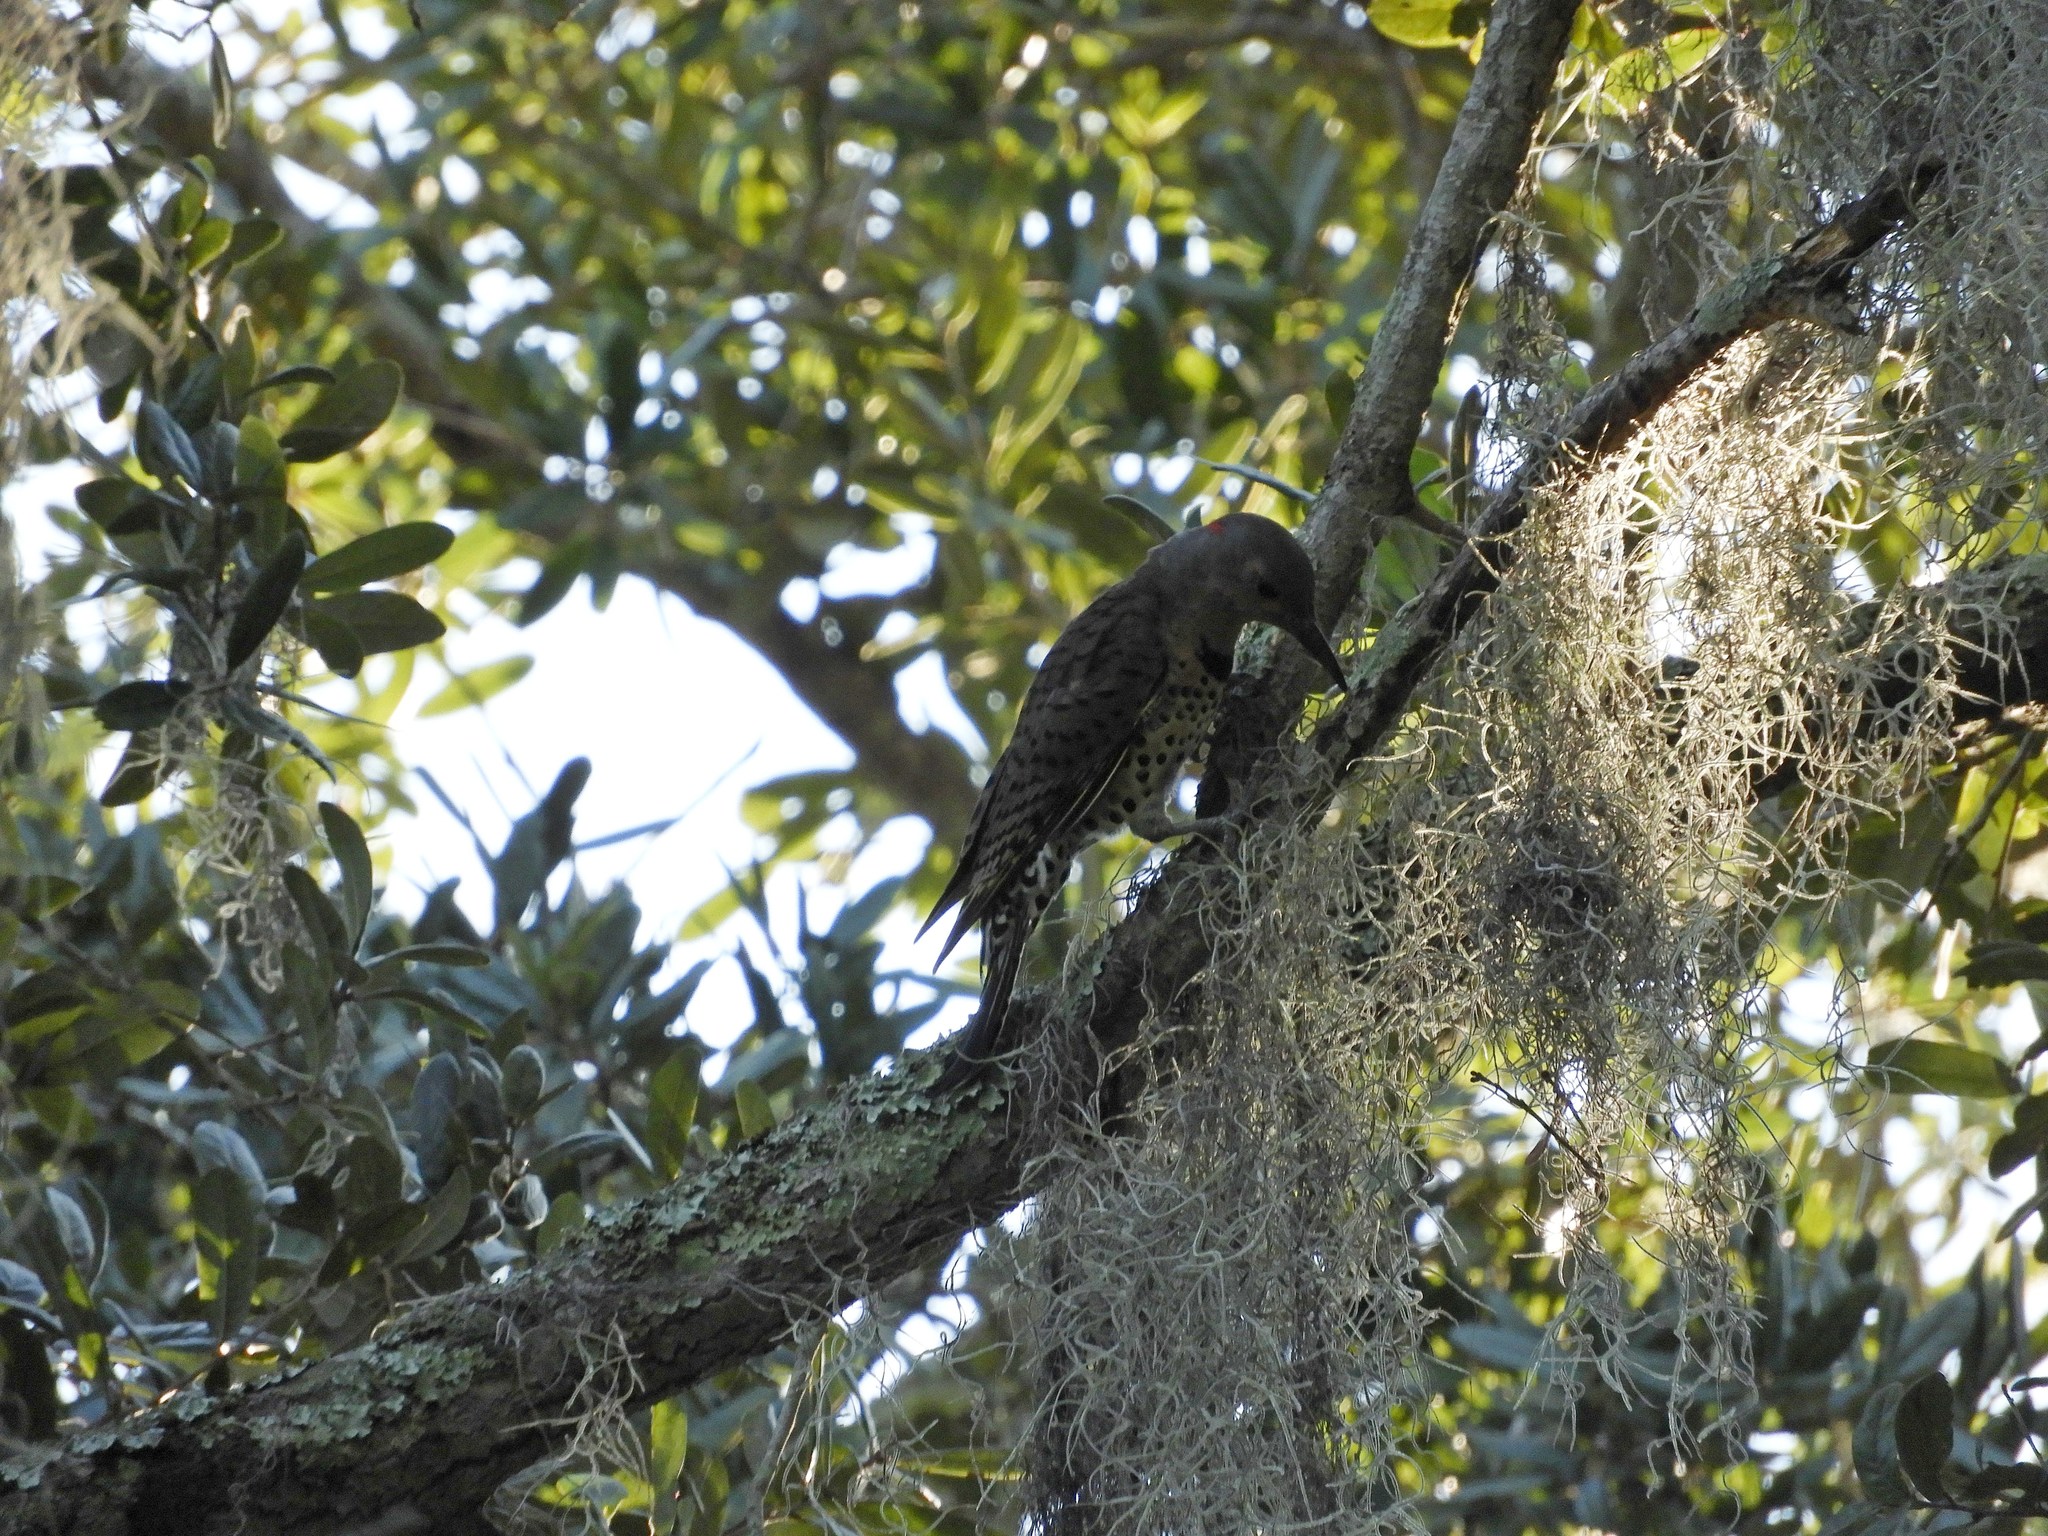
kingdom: Animalia
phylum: Chordata
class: Aves
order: Piciformes
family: Picidae
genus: Colaptes
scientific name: Colaptes auratus
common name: Northern flicker
